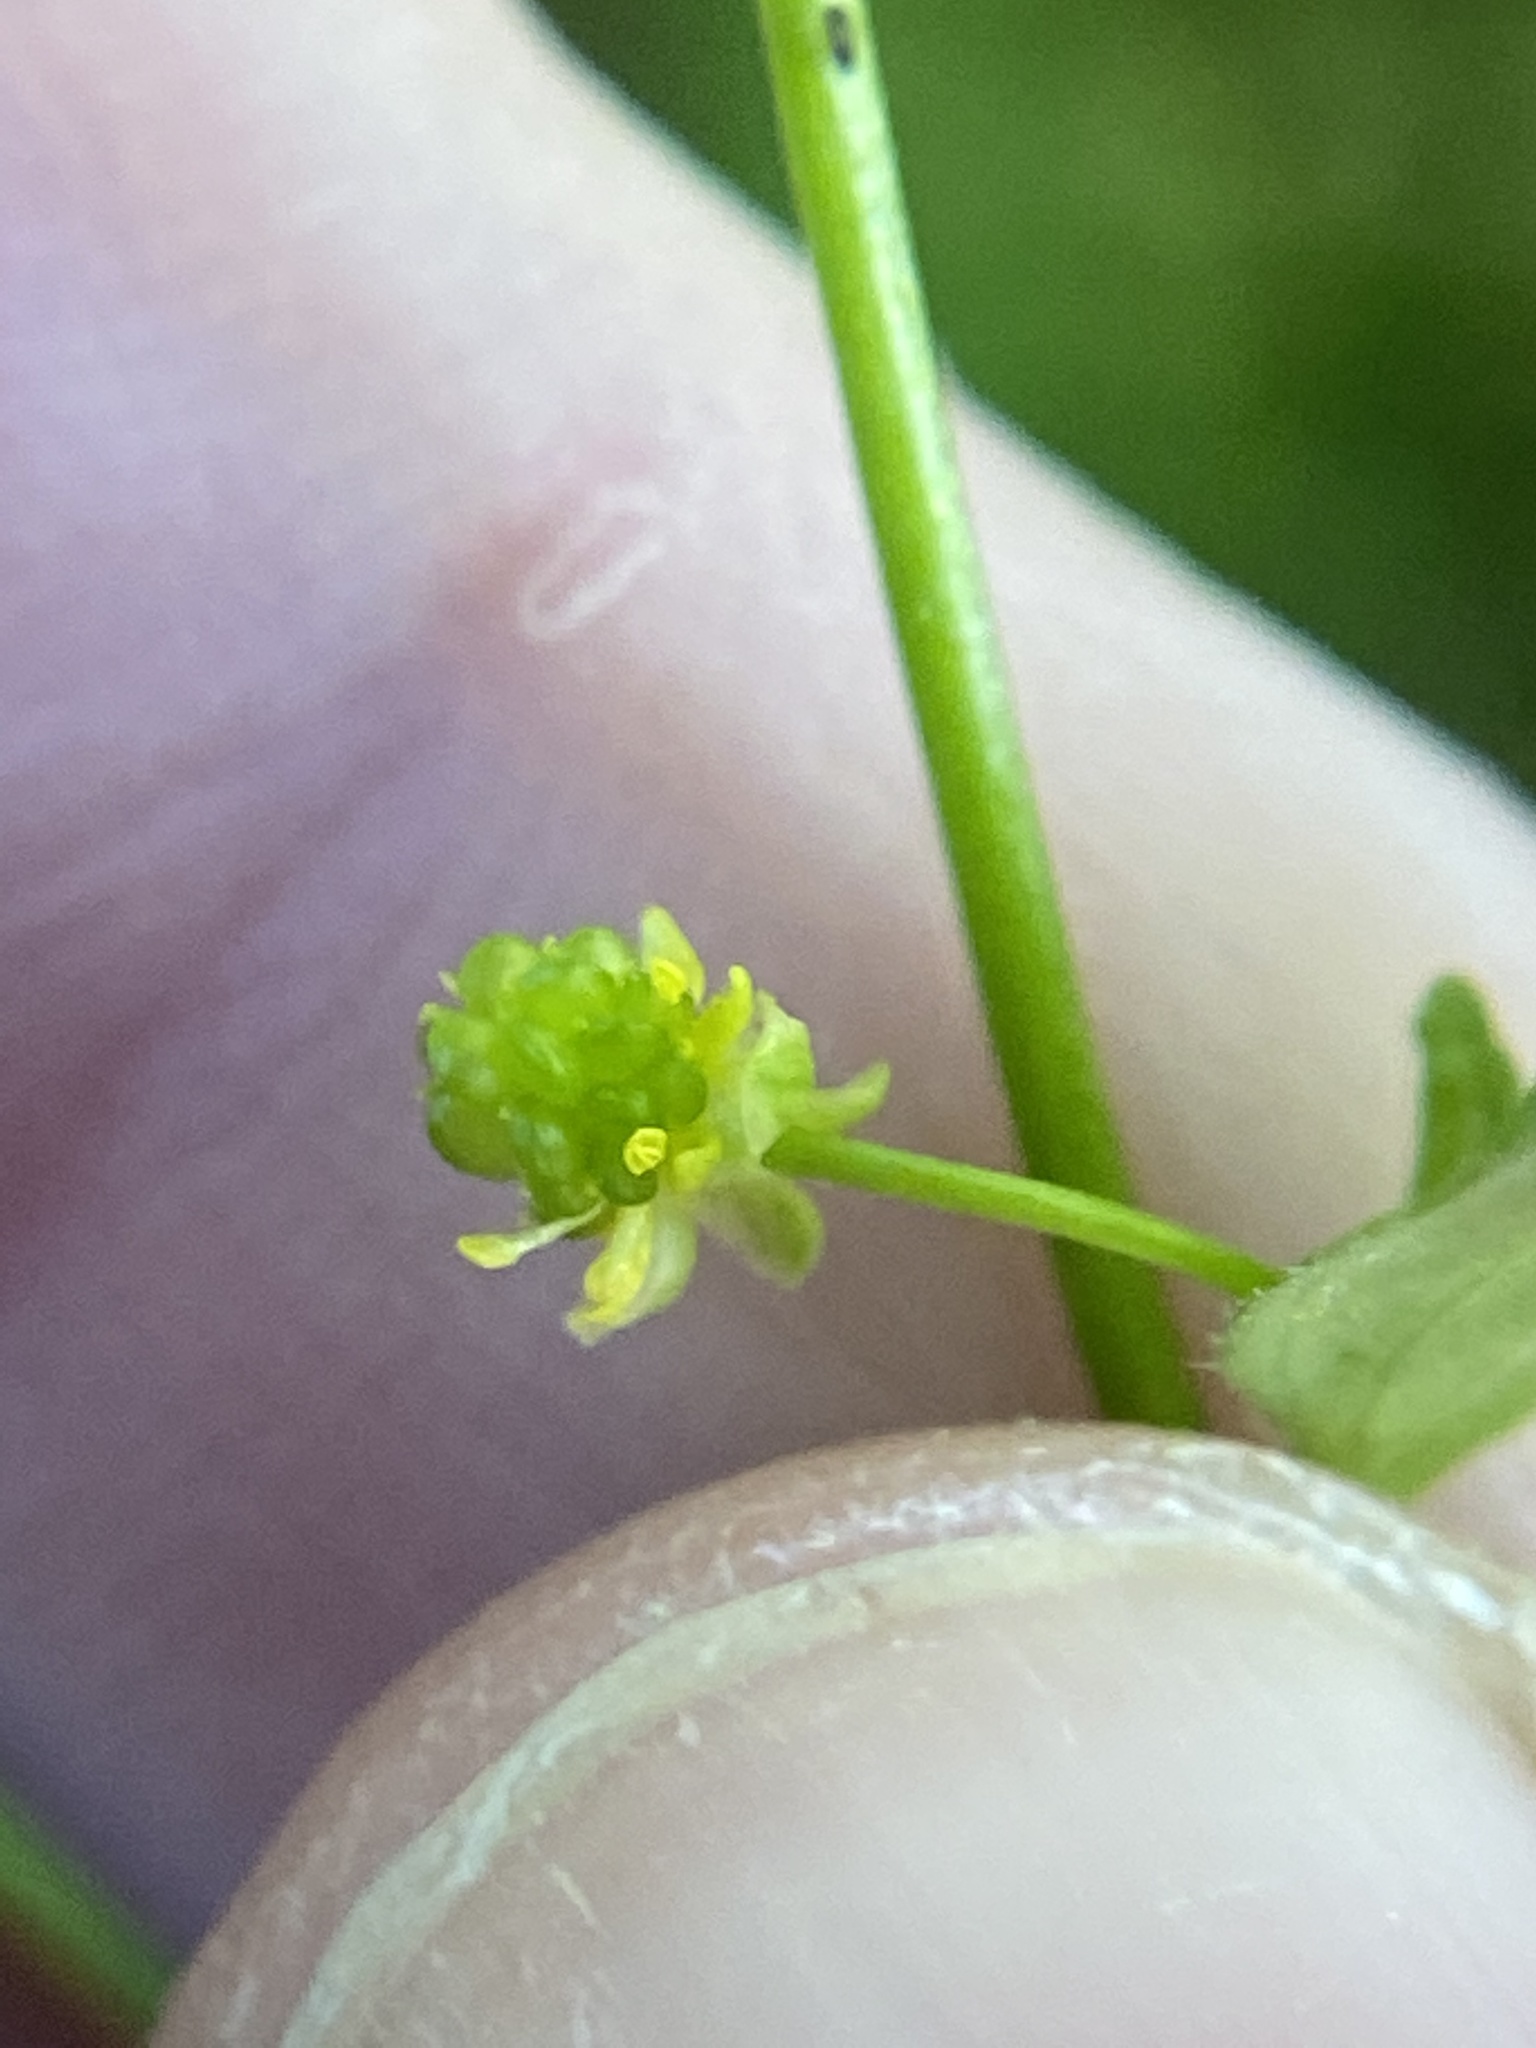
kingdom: Plantae
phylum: Tracheophyta
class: Magnoliopsida
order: Ranunculales
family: Ranunculaceae
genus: Ranunculus
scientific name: Ranunculus abortivus
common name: Early wood buttercup
